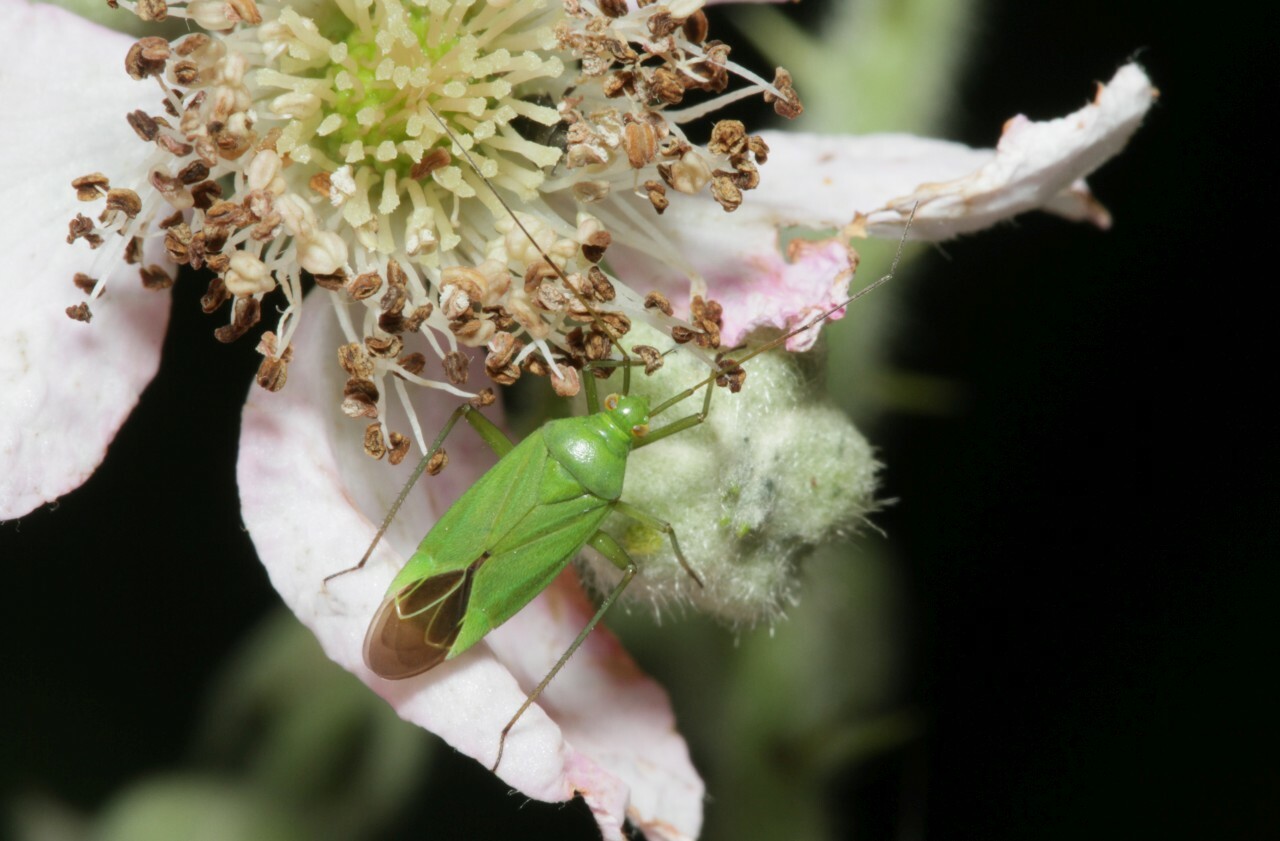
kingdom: Animalia
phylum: Arthropoda
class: Insecta
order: Hemiptera
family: Miridae
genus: Calocoris
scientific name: Calocoris affinis
